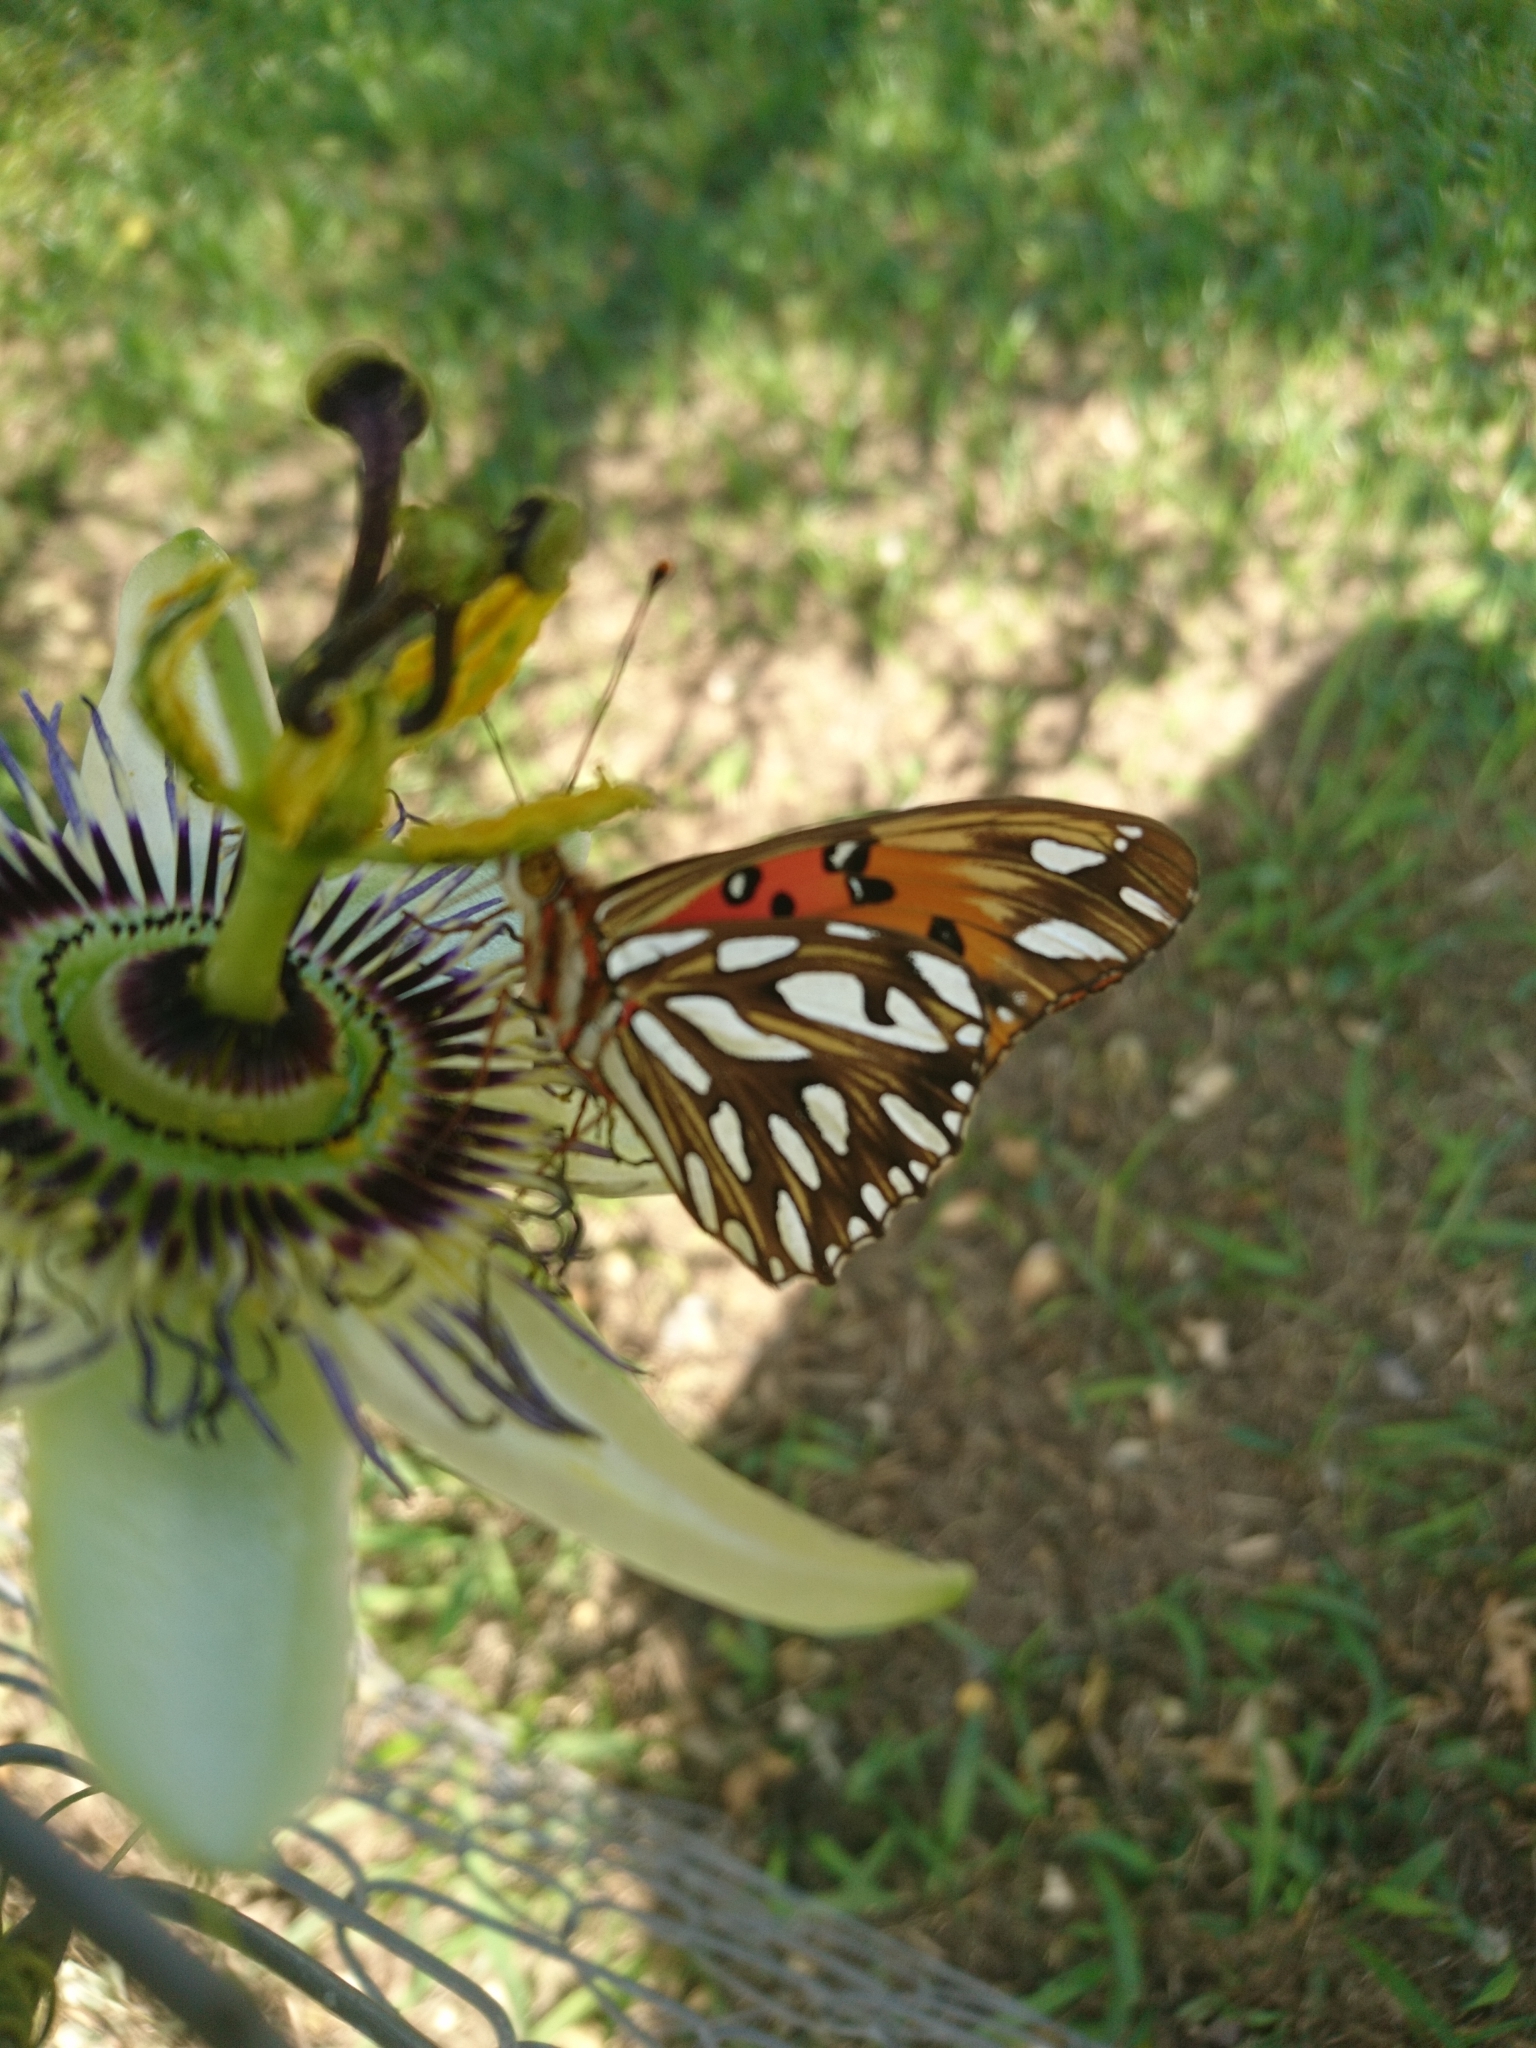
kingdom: Animalia
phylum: Arthropoda
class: Insecta
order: Lepidoptera
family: Nymphalidae
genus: Dione
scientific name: Dione vanillae
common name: Gulf fritillary
